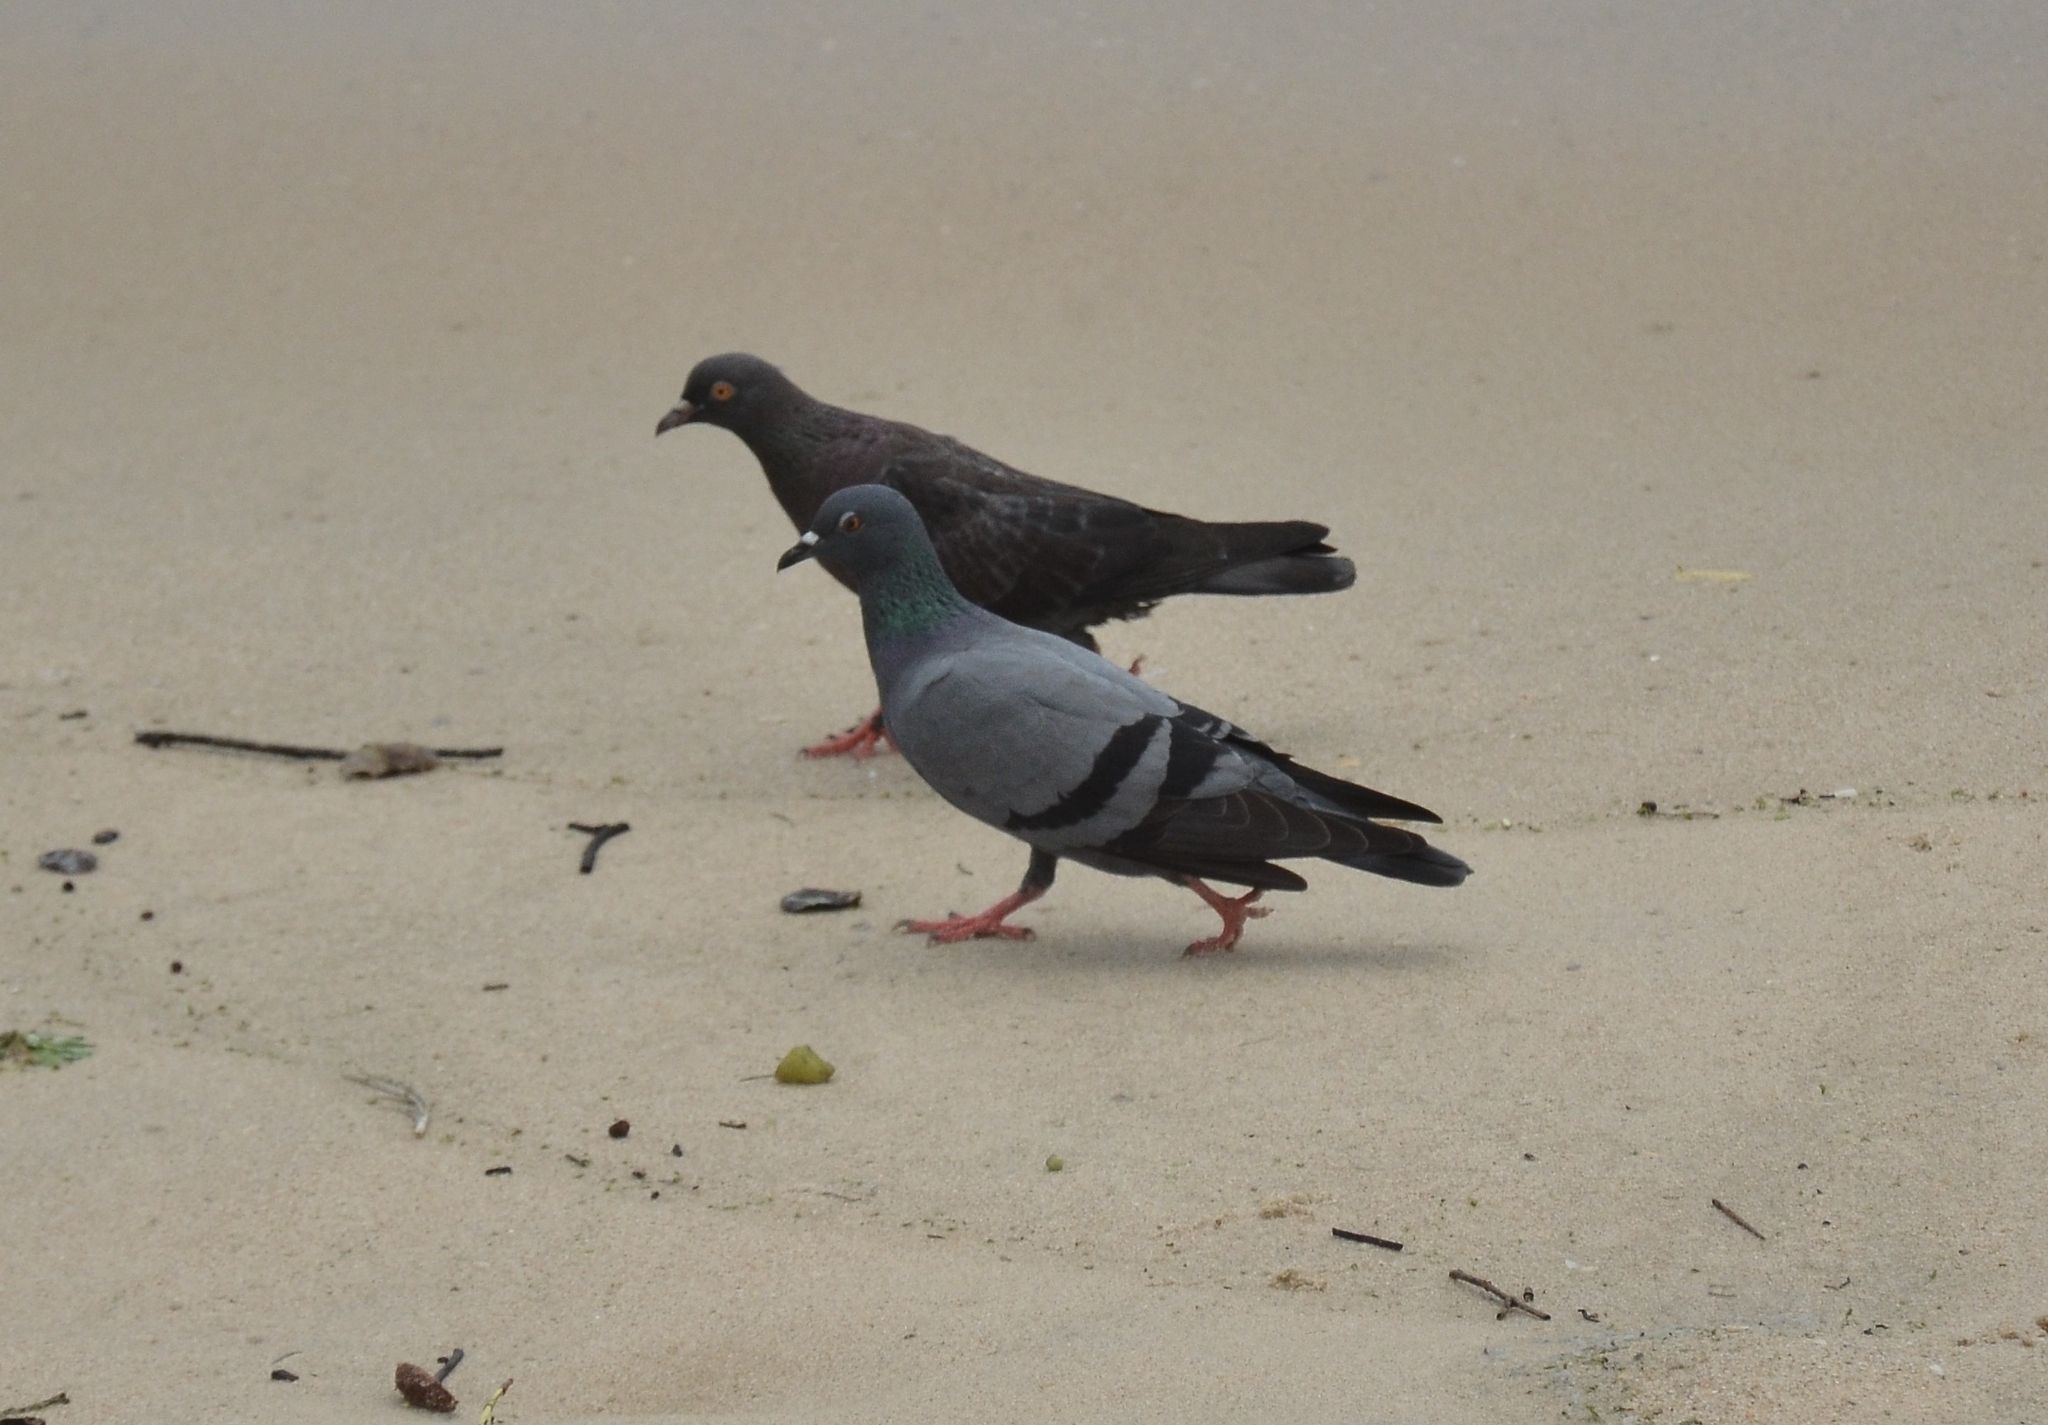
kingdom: Animalia
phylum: Chordata
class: Aves
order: Columbiformes
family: Columbidae
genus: Columba
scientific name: Columba livia
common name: Rock pigeon
